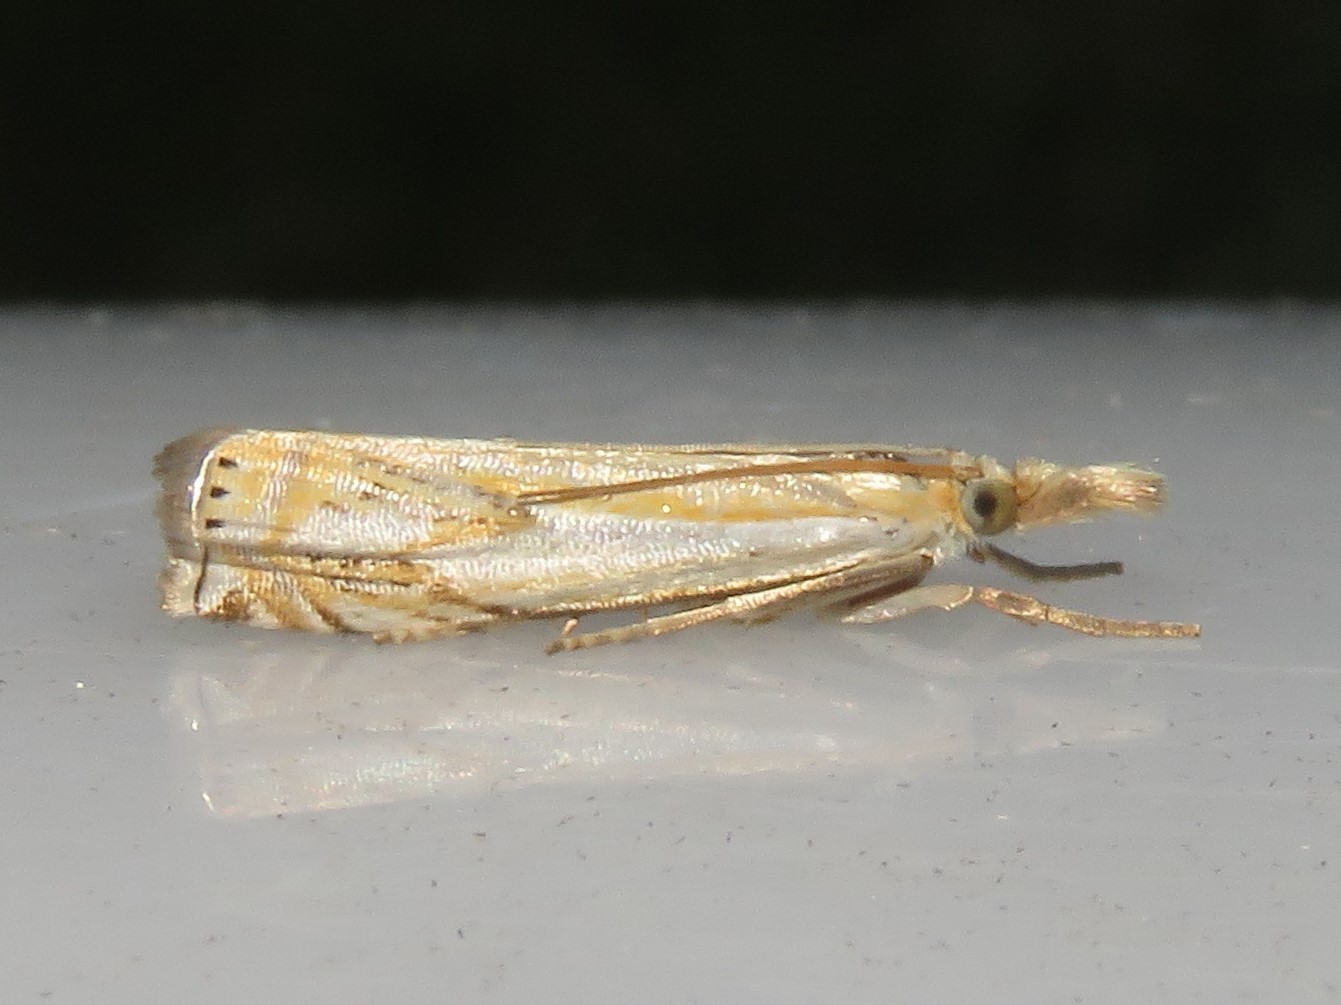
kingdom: Animalia
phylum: Arthropoda
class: Insecta
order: Lepidoptera
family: Crambidae
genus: Crambus
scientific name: Crambus agitatellus
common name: Double-banded grass-veneer
